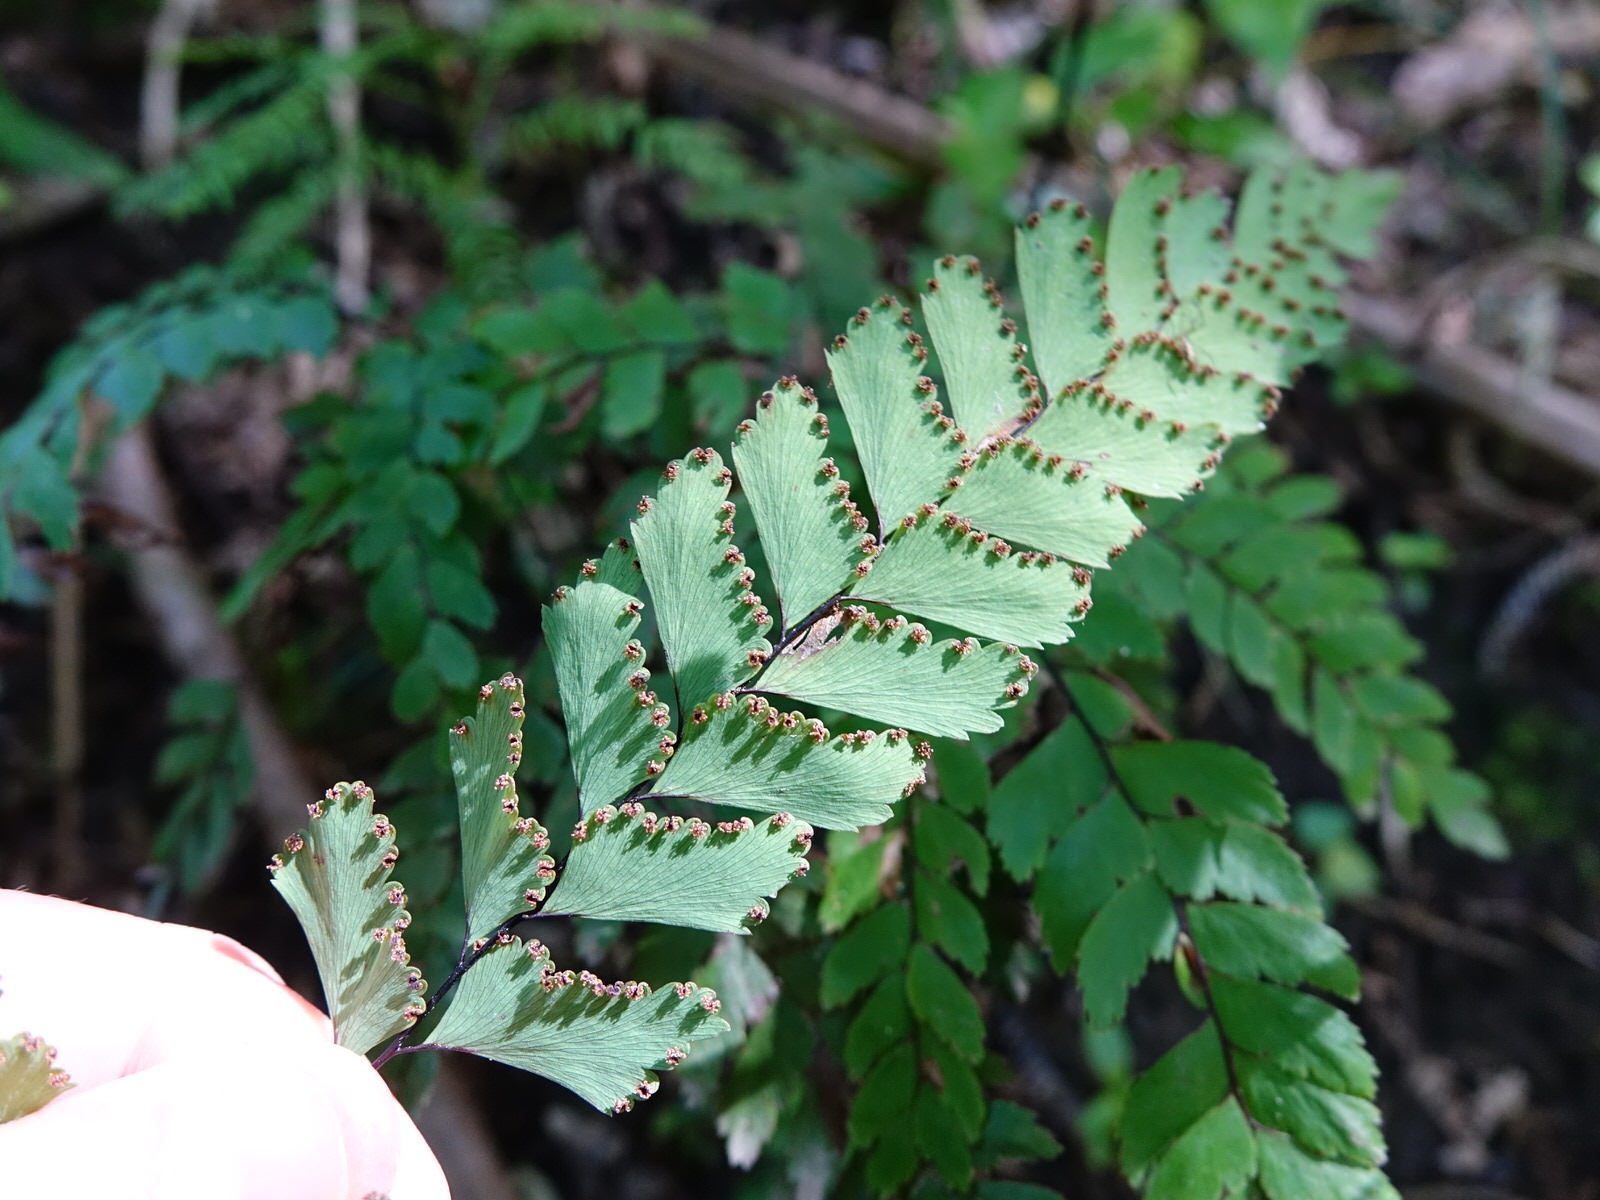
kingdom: Plantae
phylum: Tracheophyta
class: Polypodiopsida
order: Polypodiales
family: Pteridaceae
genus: Adiantum
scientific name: Adiantum cunninghamii
